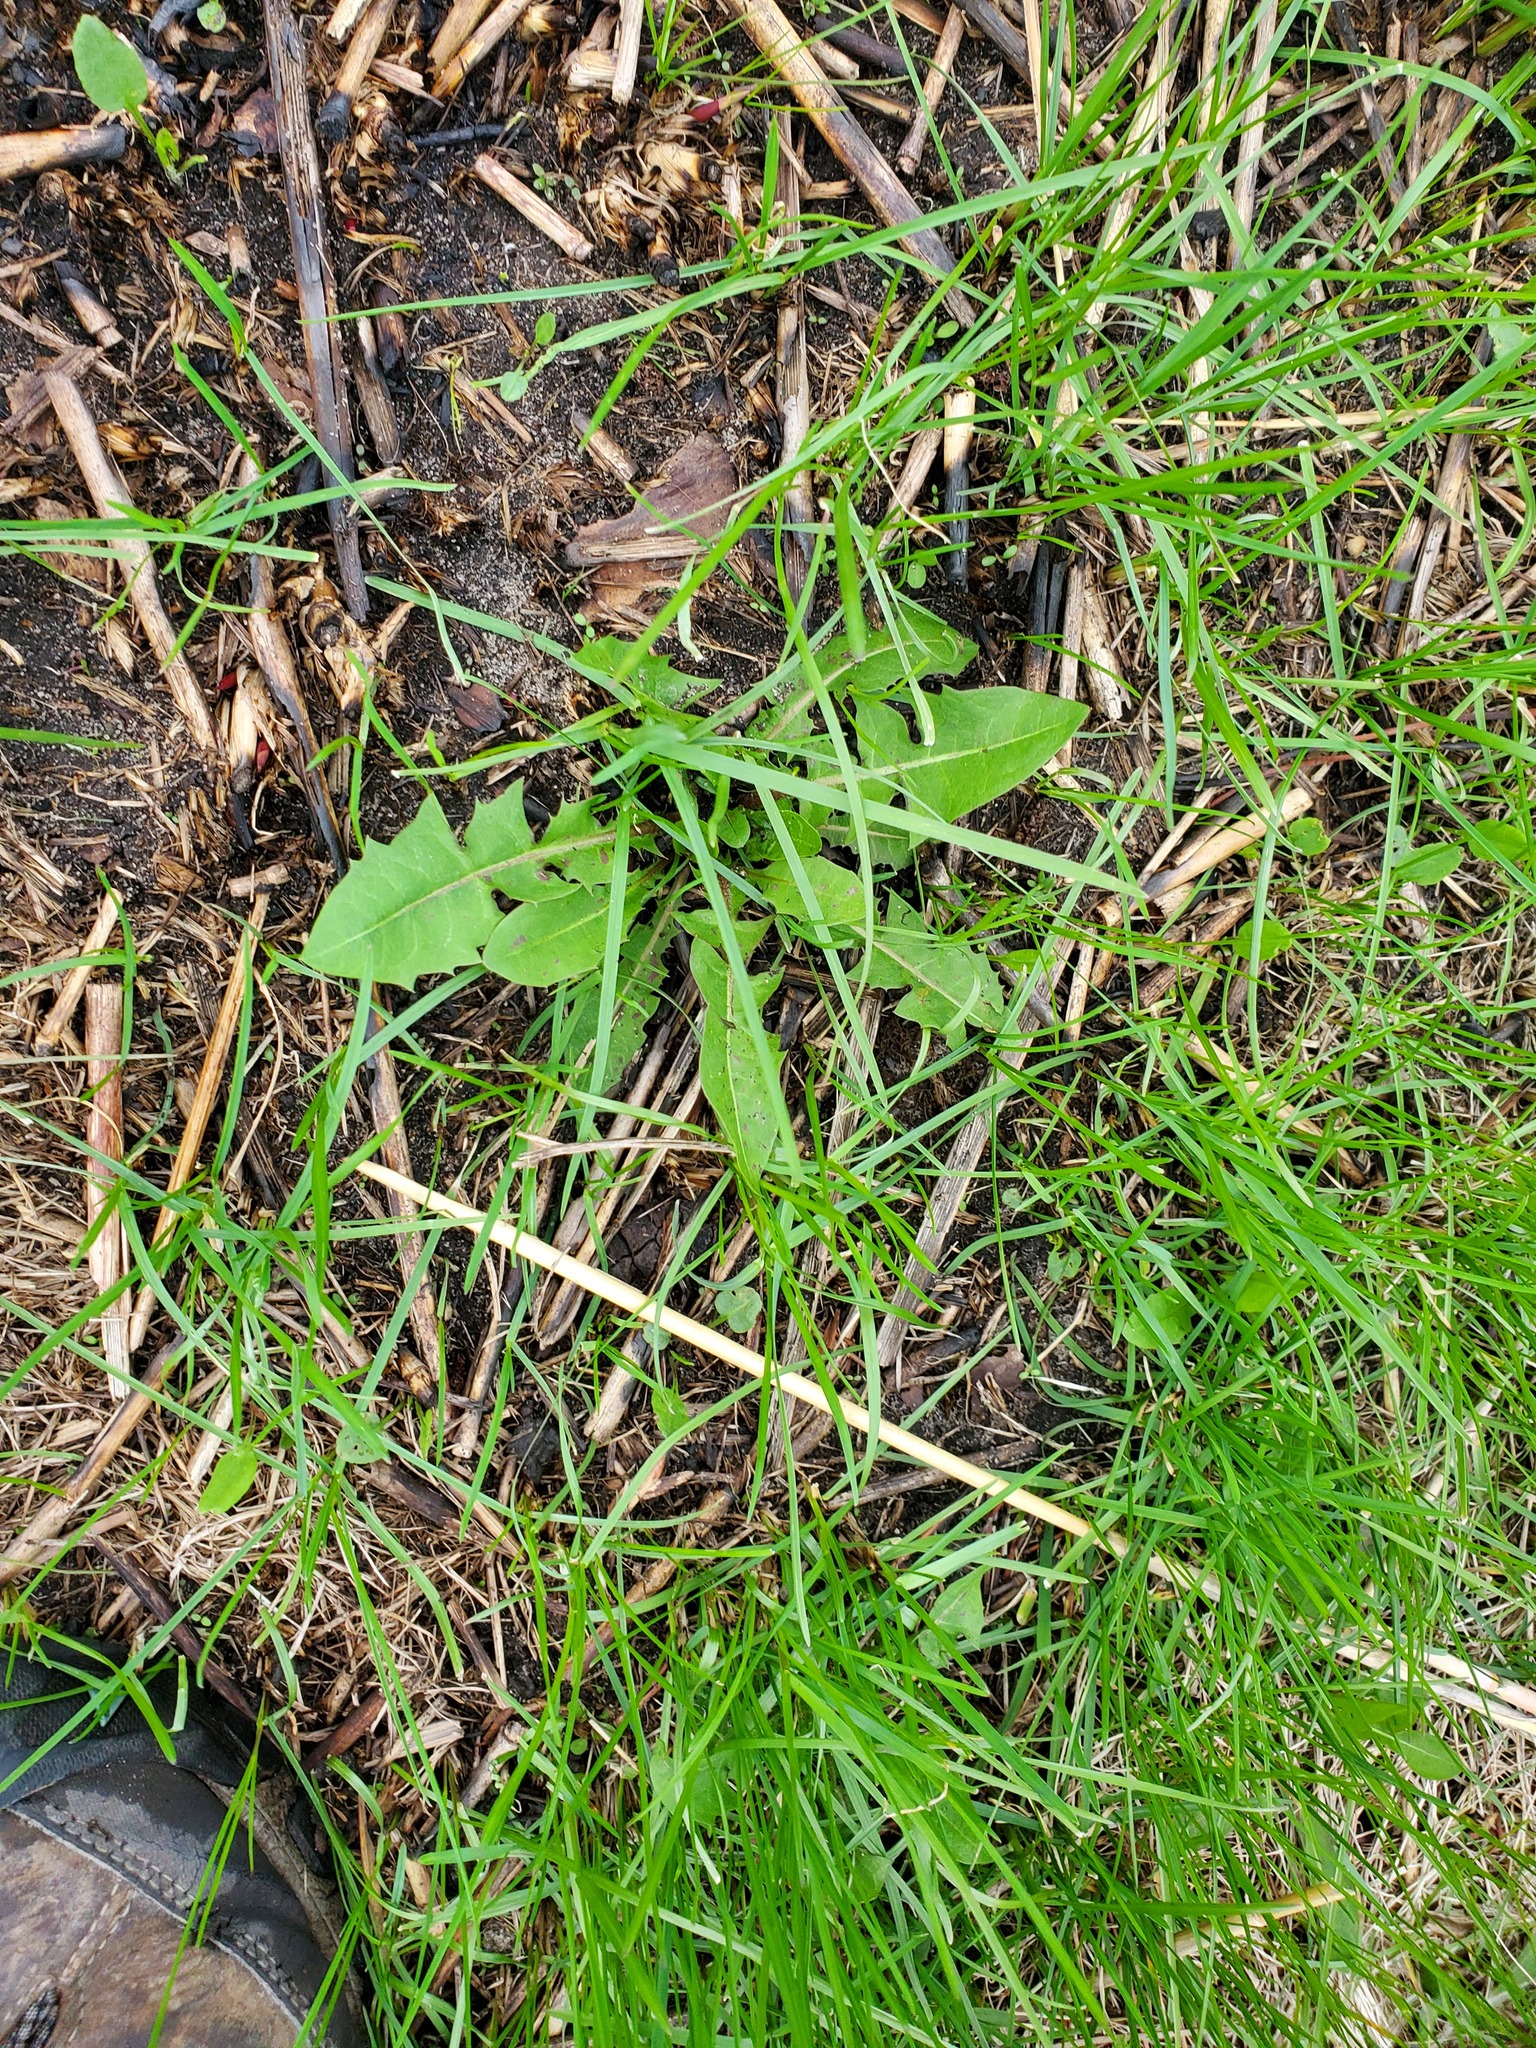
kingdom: Plantae
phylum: Tracheophyta
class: Magnoliopsida
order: Asterales
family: Asteraceae
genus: Taraxacum
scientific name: Taraxacum officinale
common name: Common dandelion
